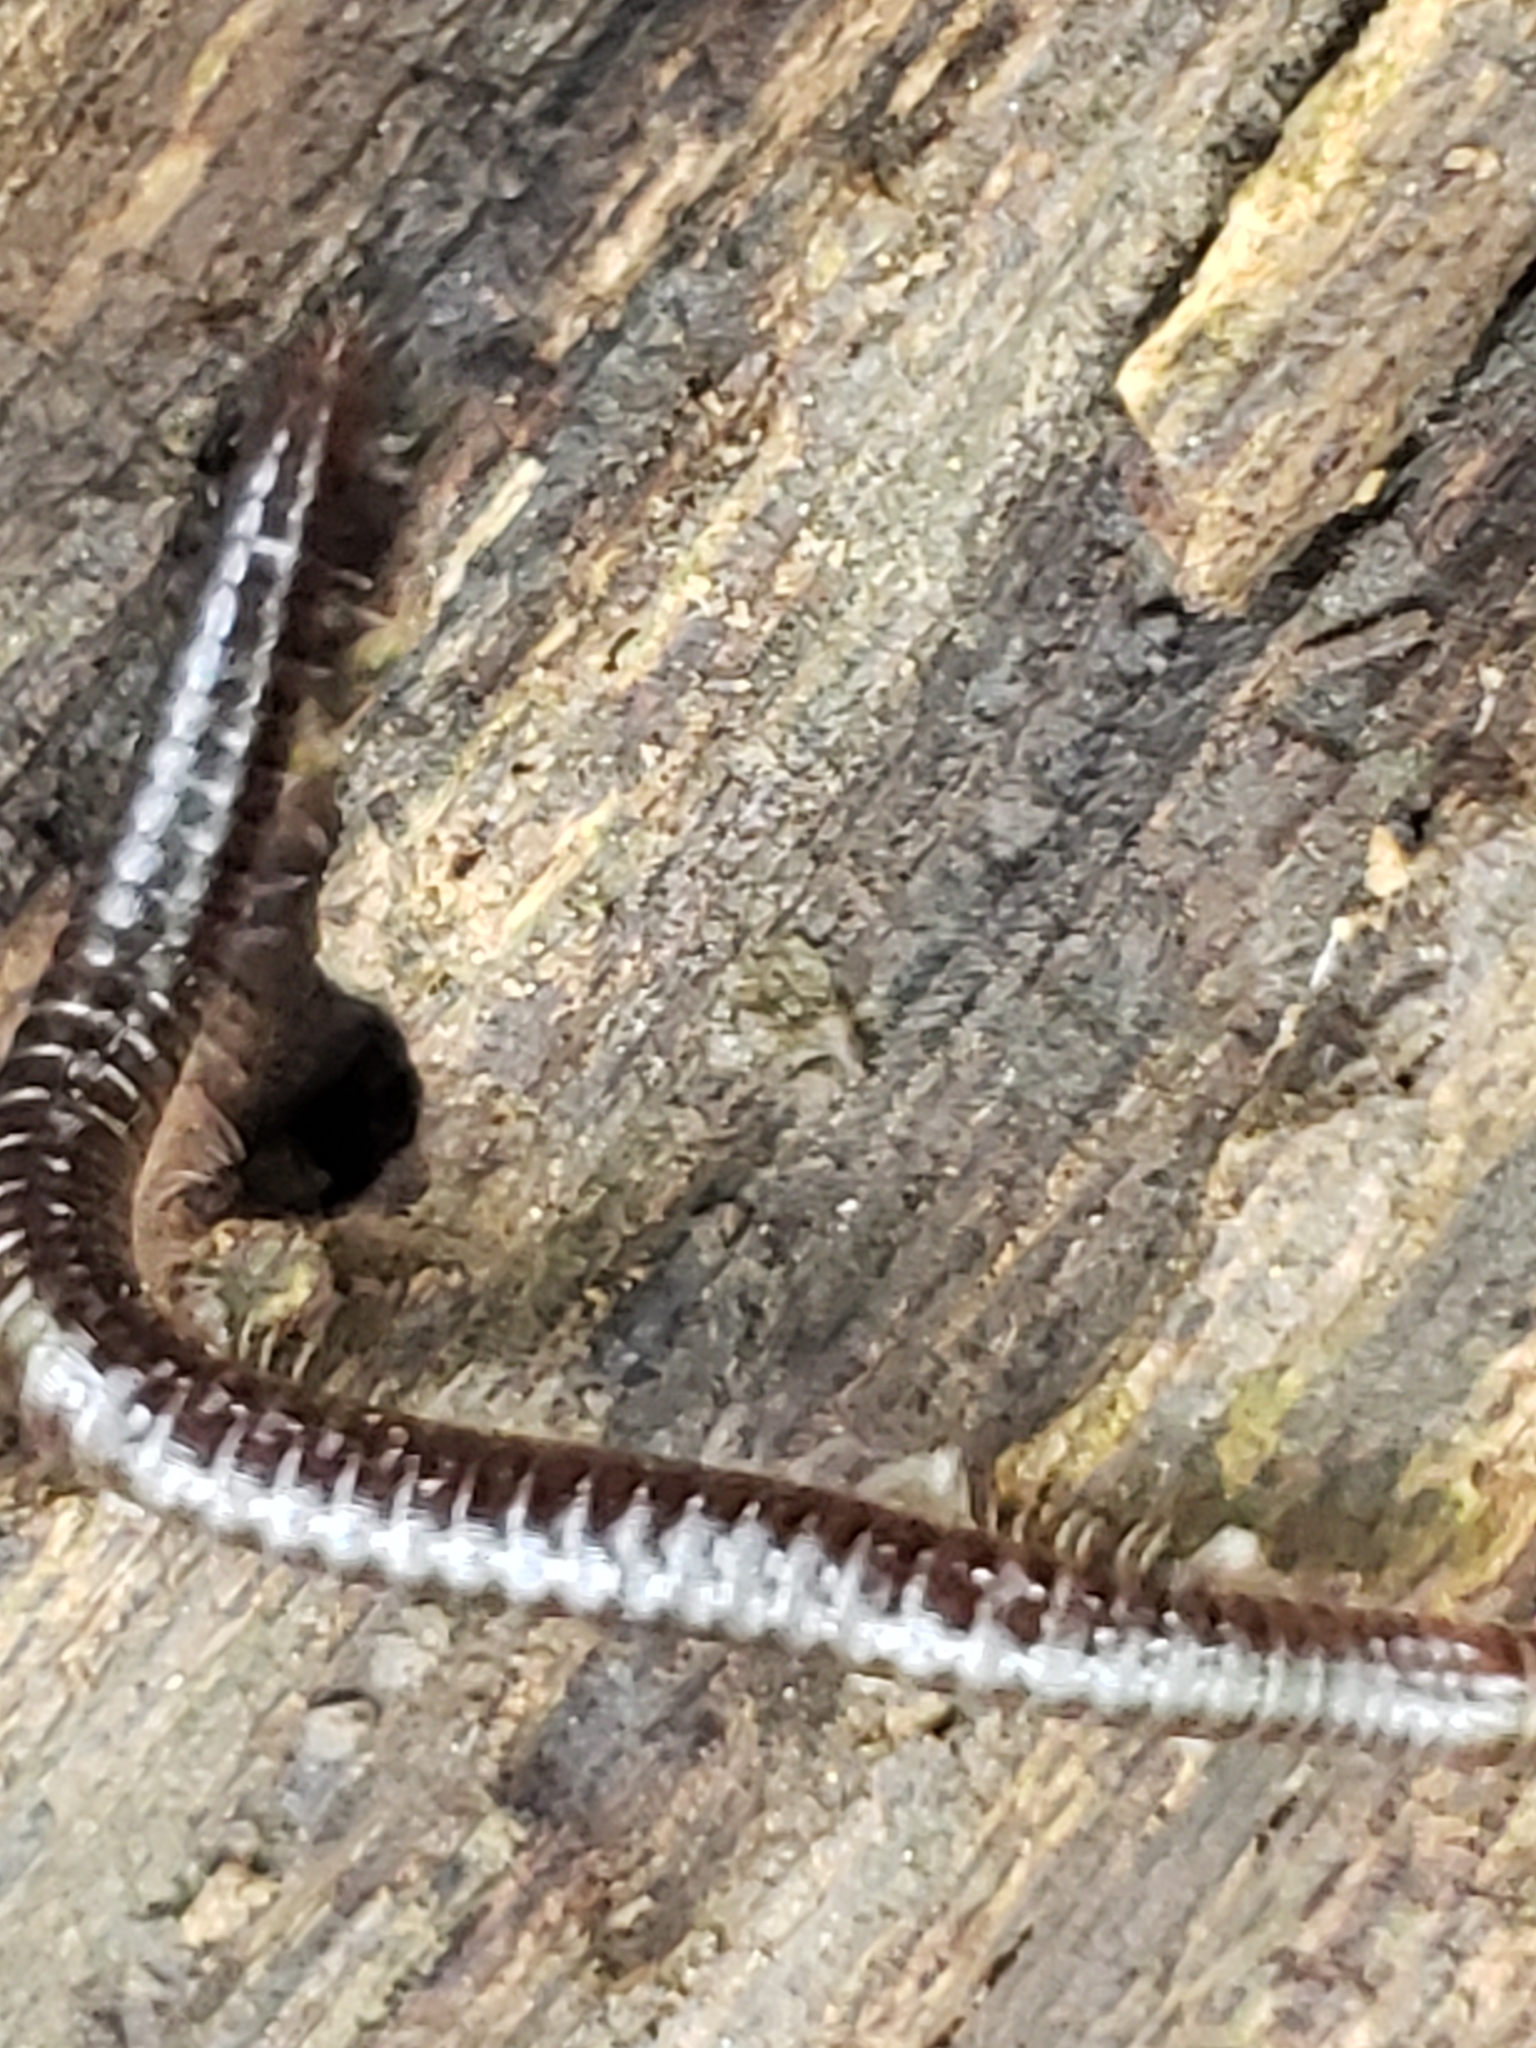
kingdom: Animalia
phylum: Arthropoda
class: Diplopoda
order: Julida
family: Julidae
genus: Ophyiulus
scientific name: Ophyiulus pilosus
